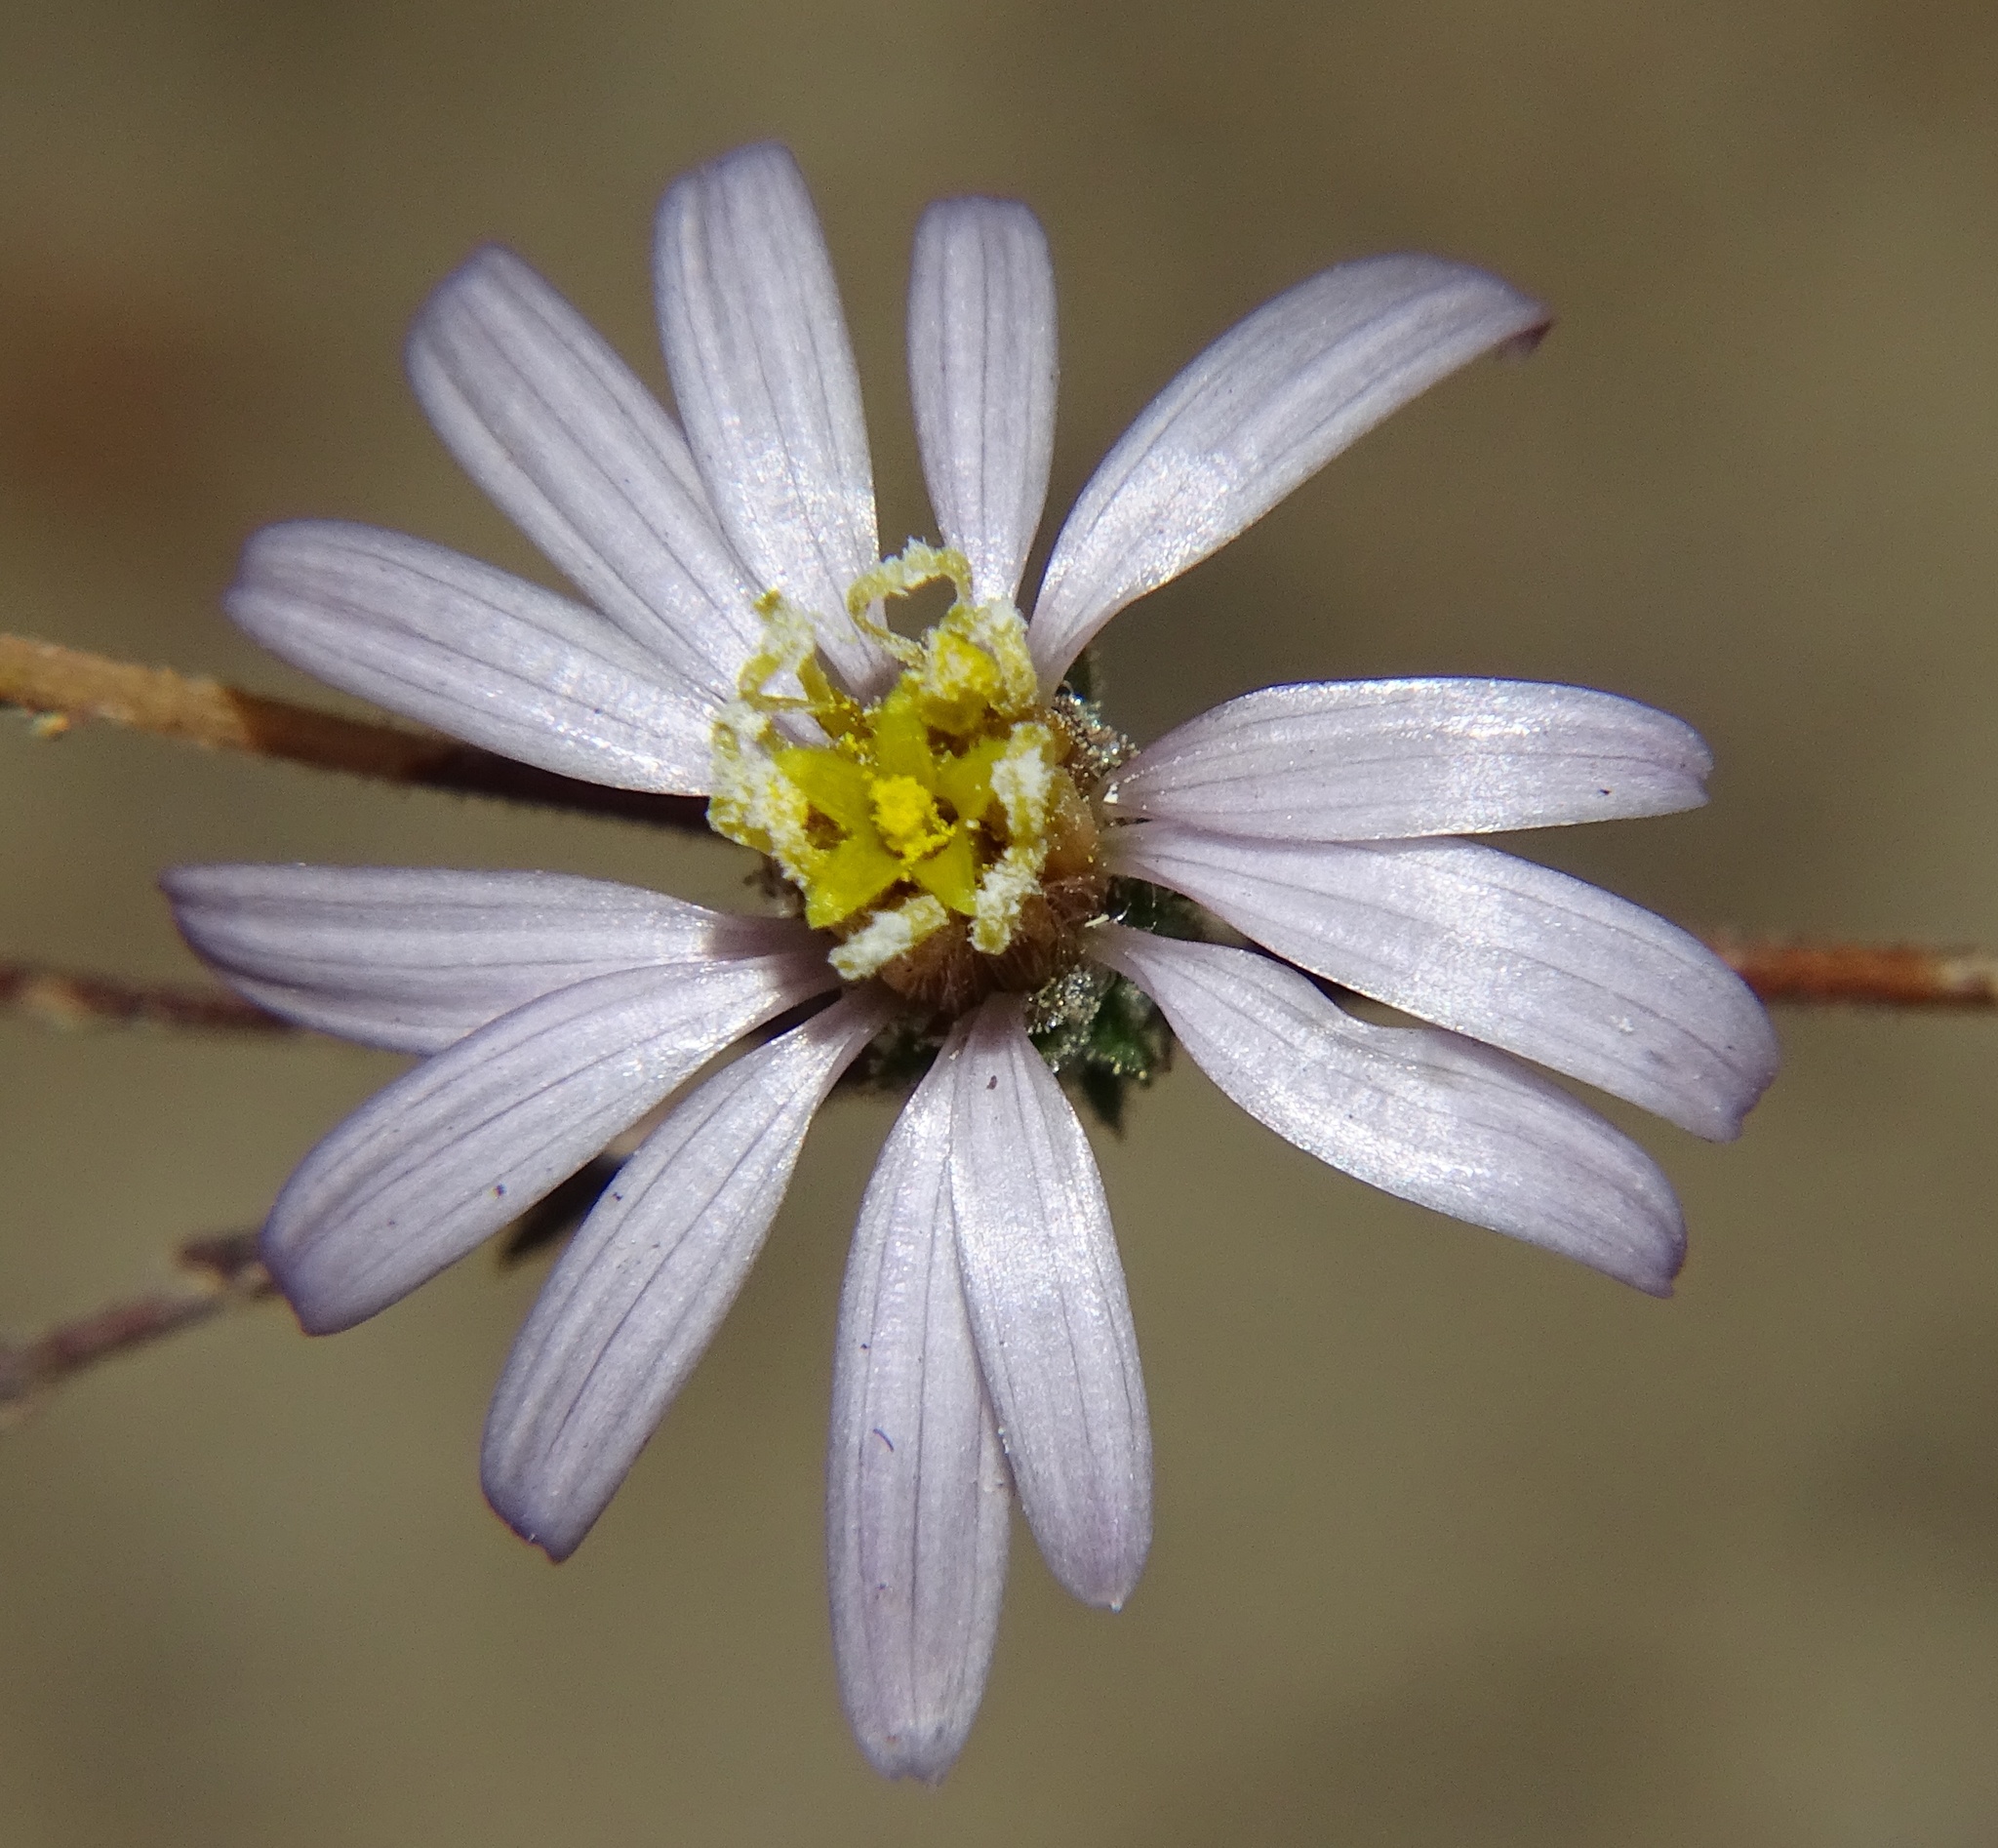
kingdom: Plantae
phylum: Tracheophyta
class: Magnoliopsida
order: Asterales
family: Asteraceae
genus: Corethrogyne
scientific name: Corethrogyne filaginifolia
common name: Sand-aster
